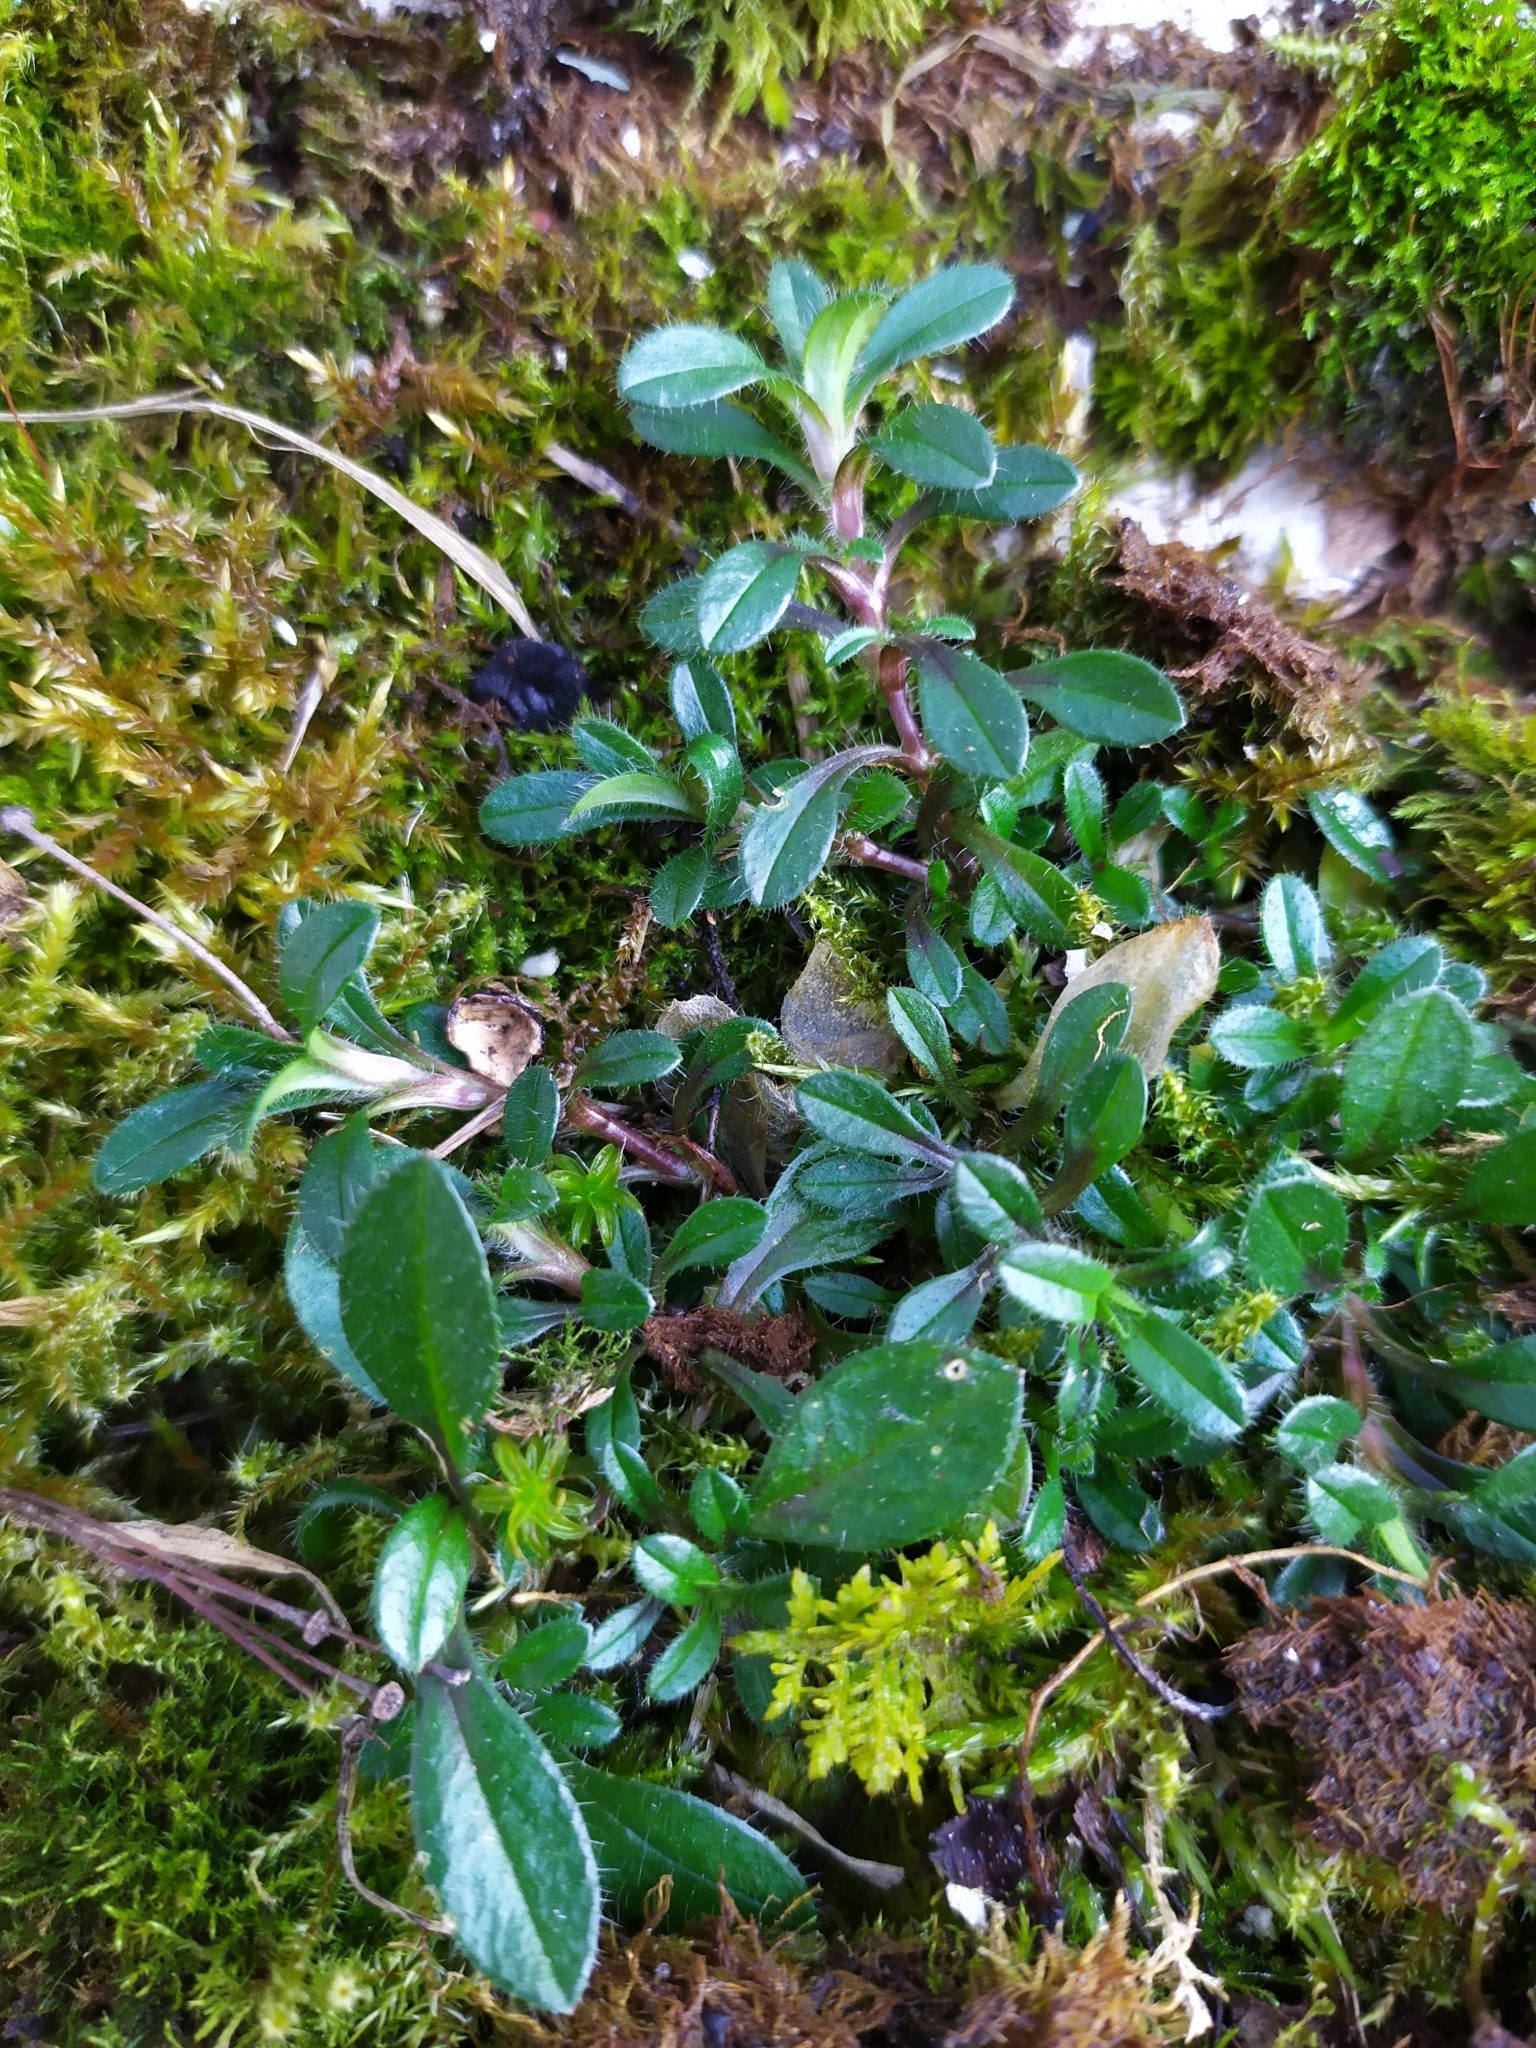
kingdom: Plantae
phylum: Tracheophyta
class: Magnoliopsida
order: Caryophyllales
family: Caryophyllaceae
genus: Cerastium
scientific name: Cerastium holosteoides
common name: Big chickweed
